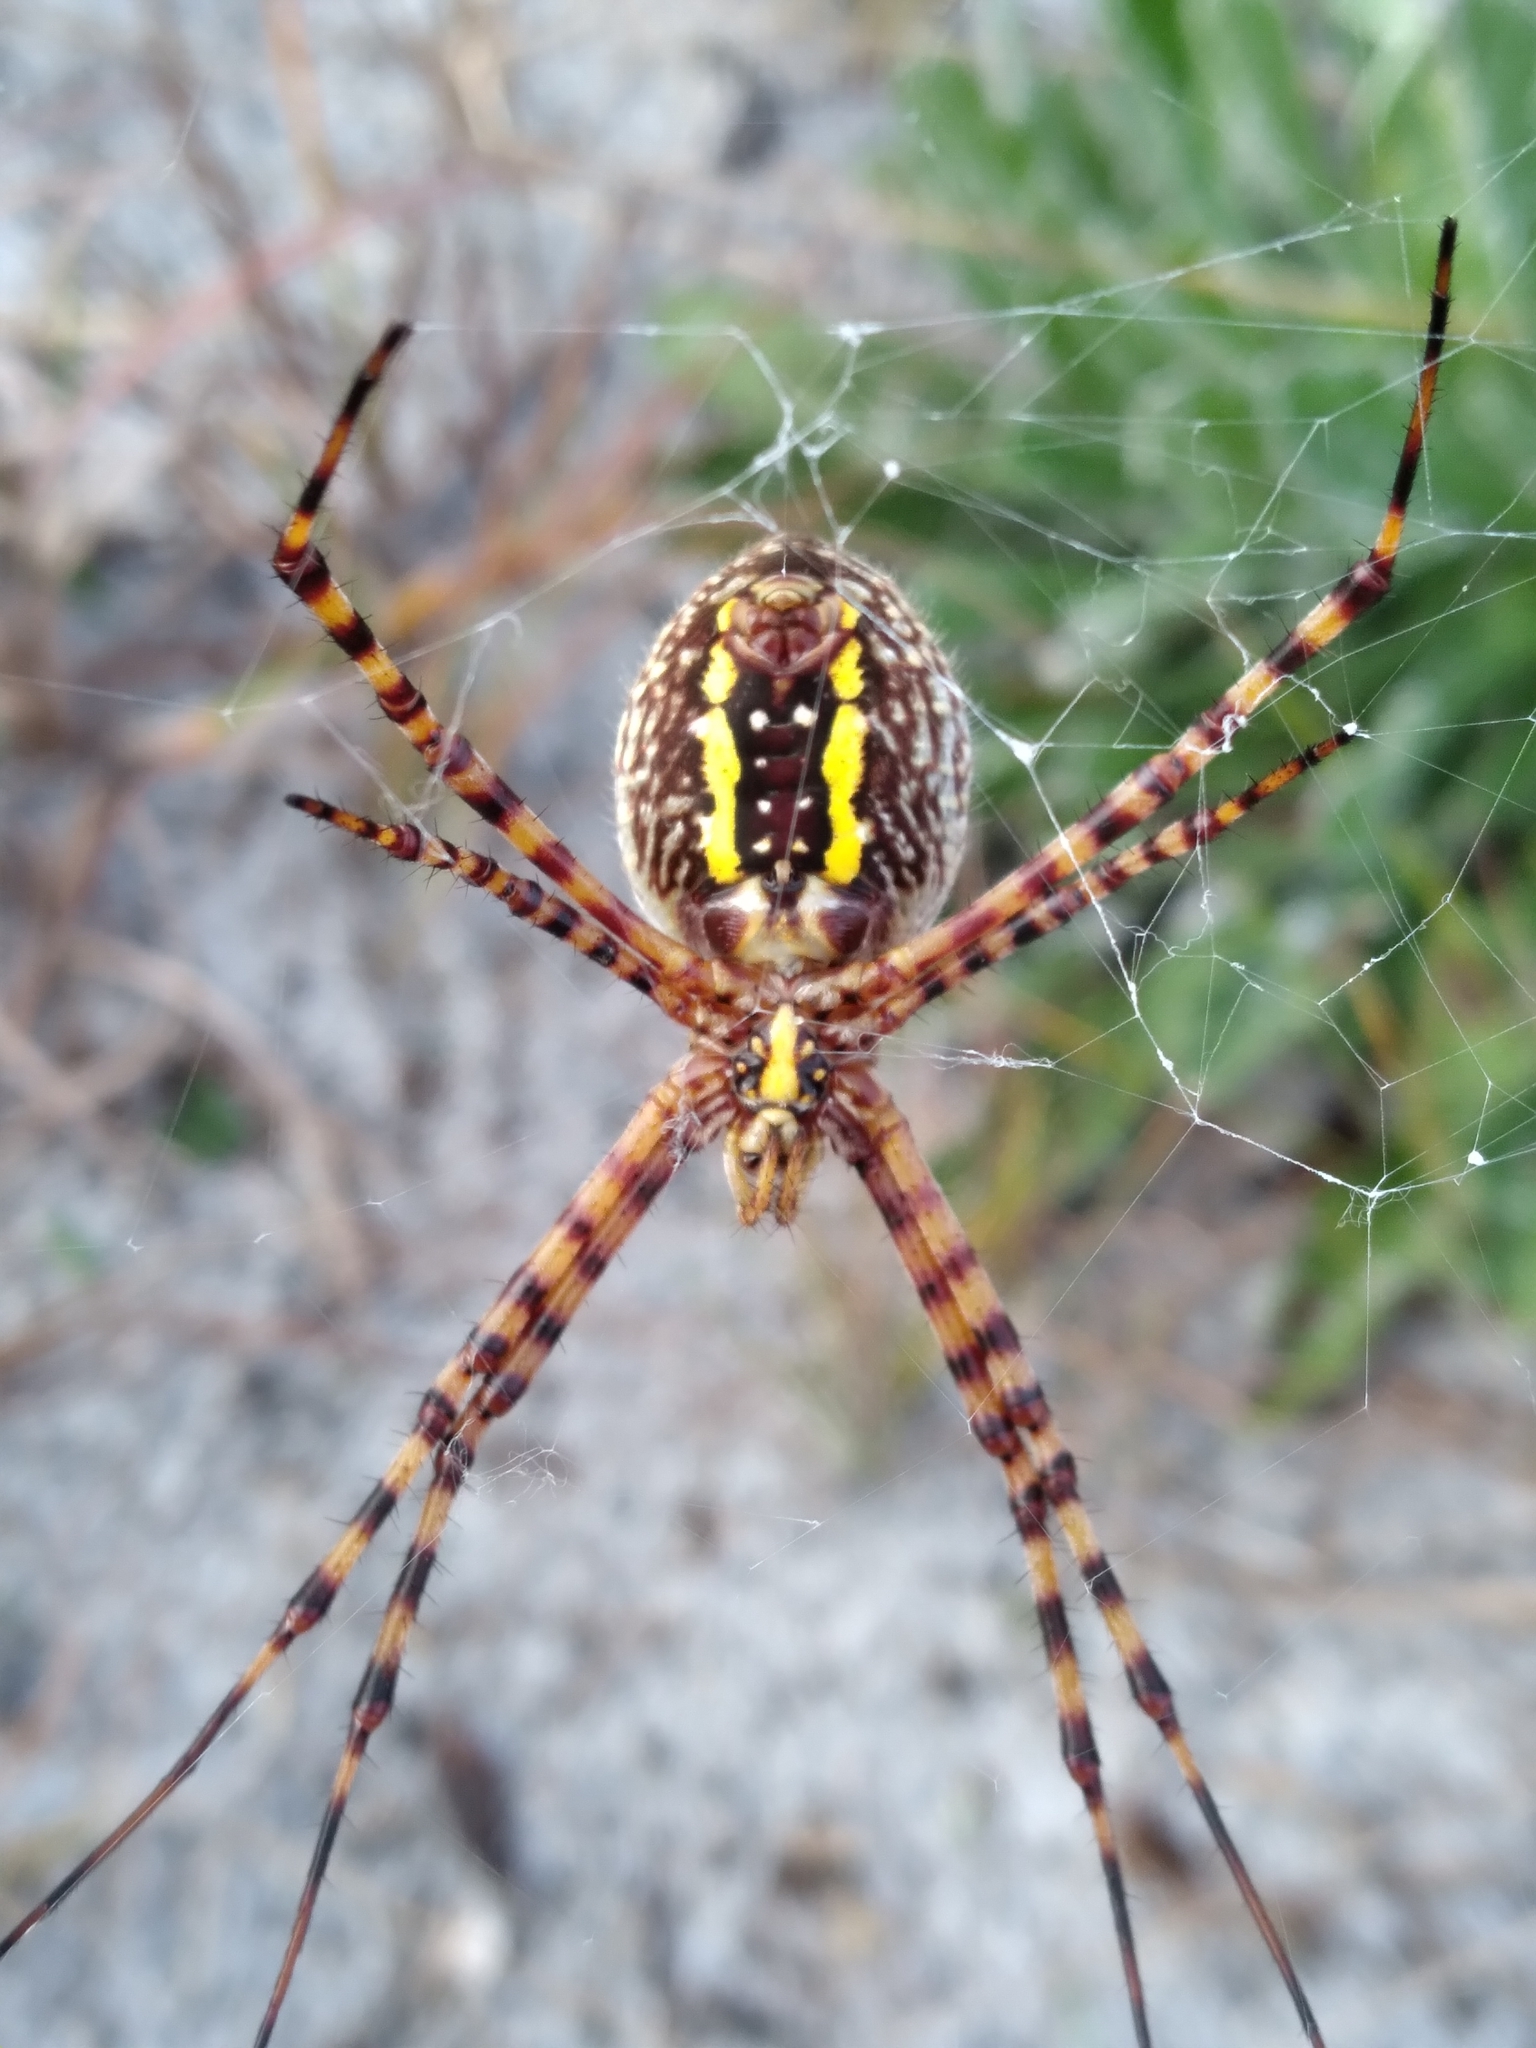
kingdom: Animalia
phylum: Arthropoda
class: Arachnida
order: Araneae
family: Araneidae
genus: Argiope
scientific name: Argiope trifasciata
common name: Banded garden spider
